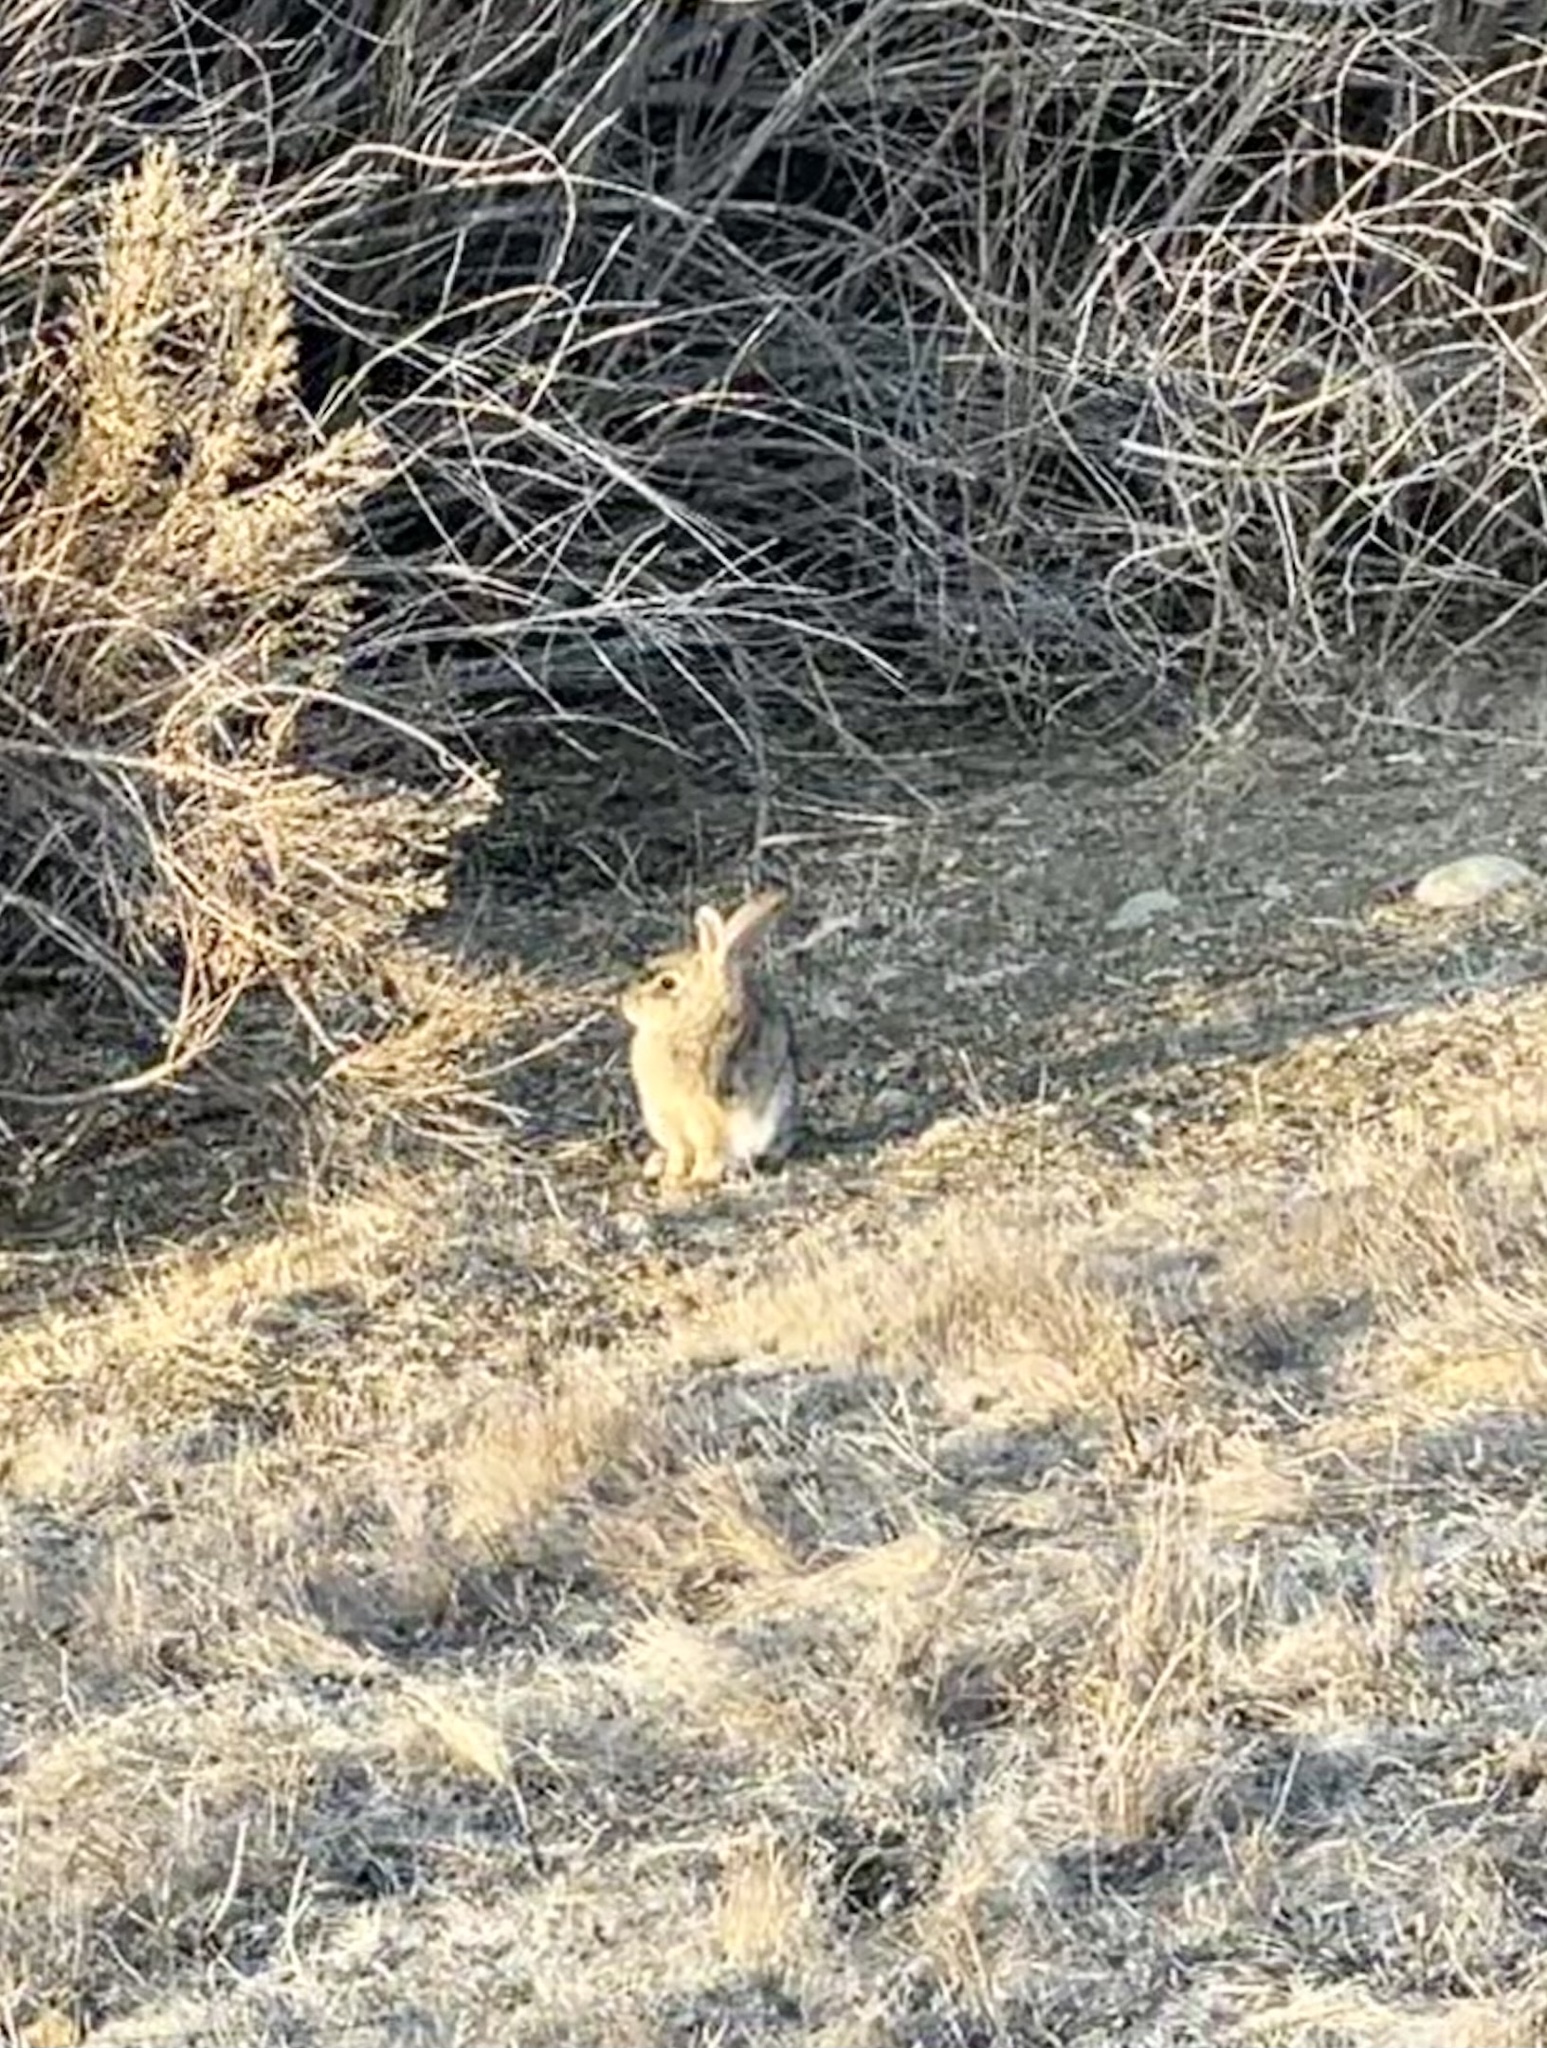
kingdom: Animalia
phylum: Chordata
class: Mammalia
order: Lagomorpha
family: Leporidae
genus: Sylvilagus
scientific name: Sylvilagus audubonii
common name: Desert cottontail
